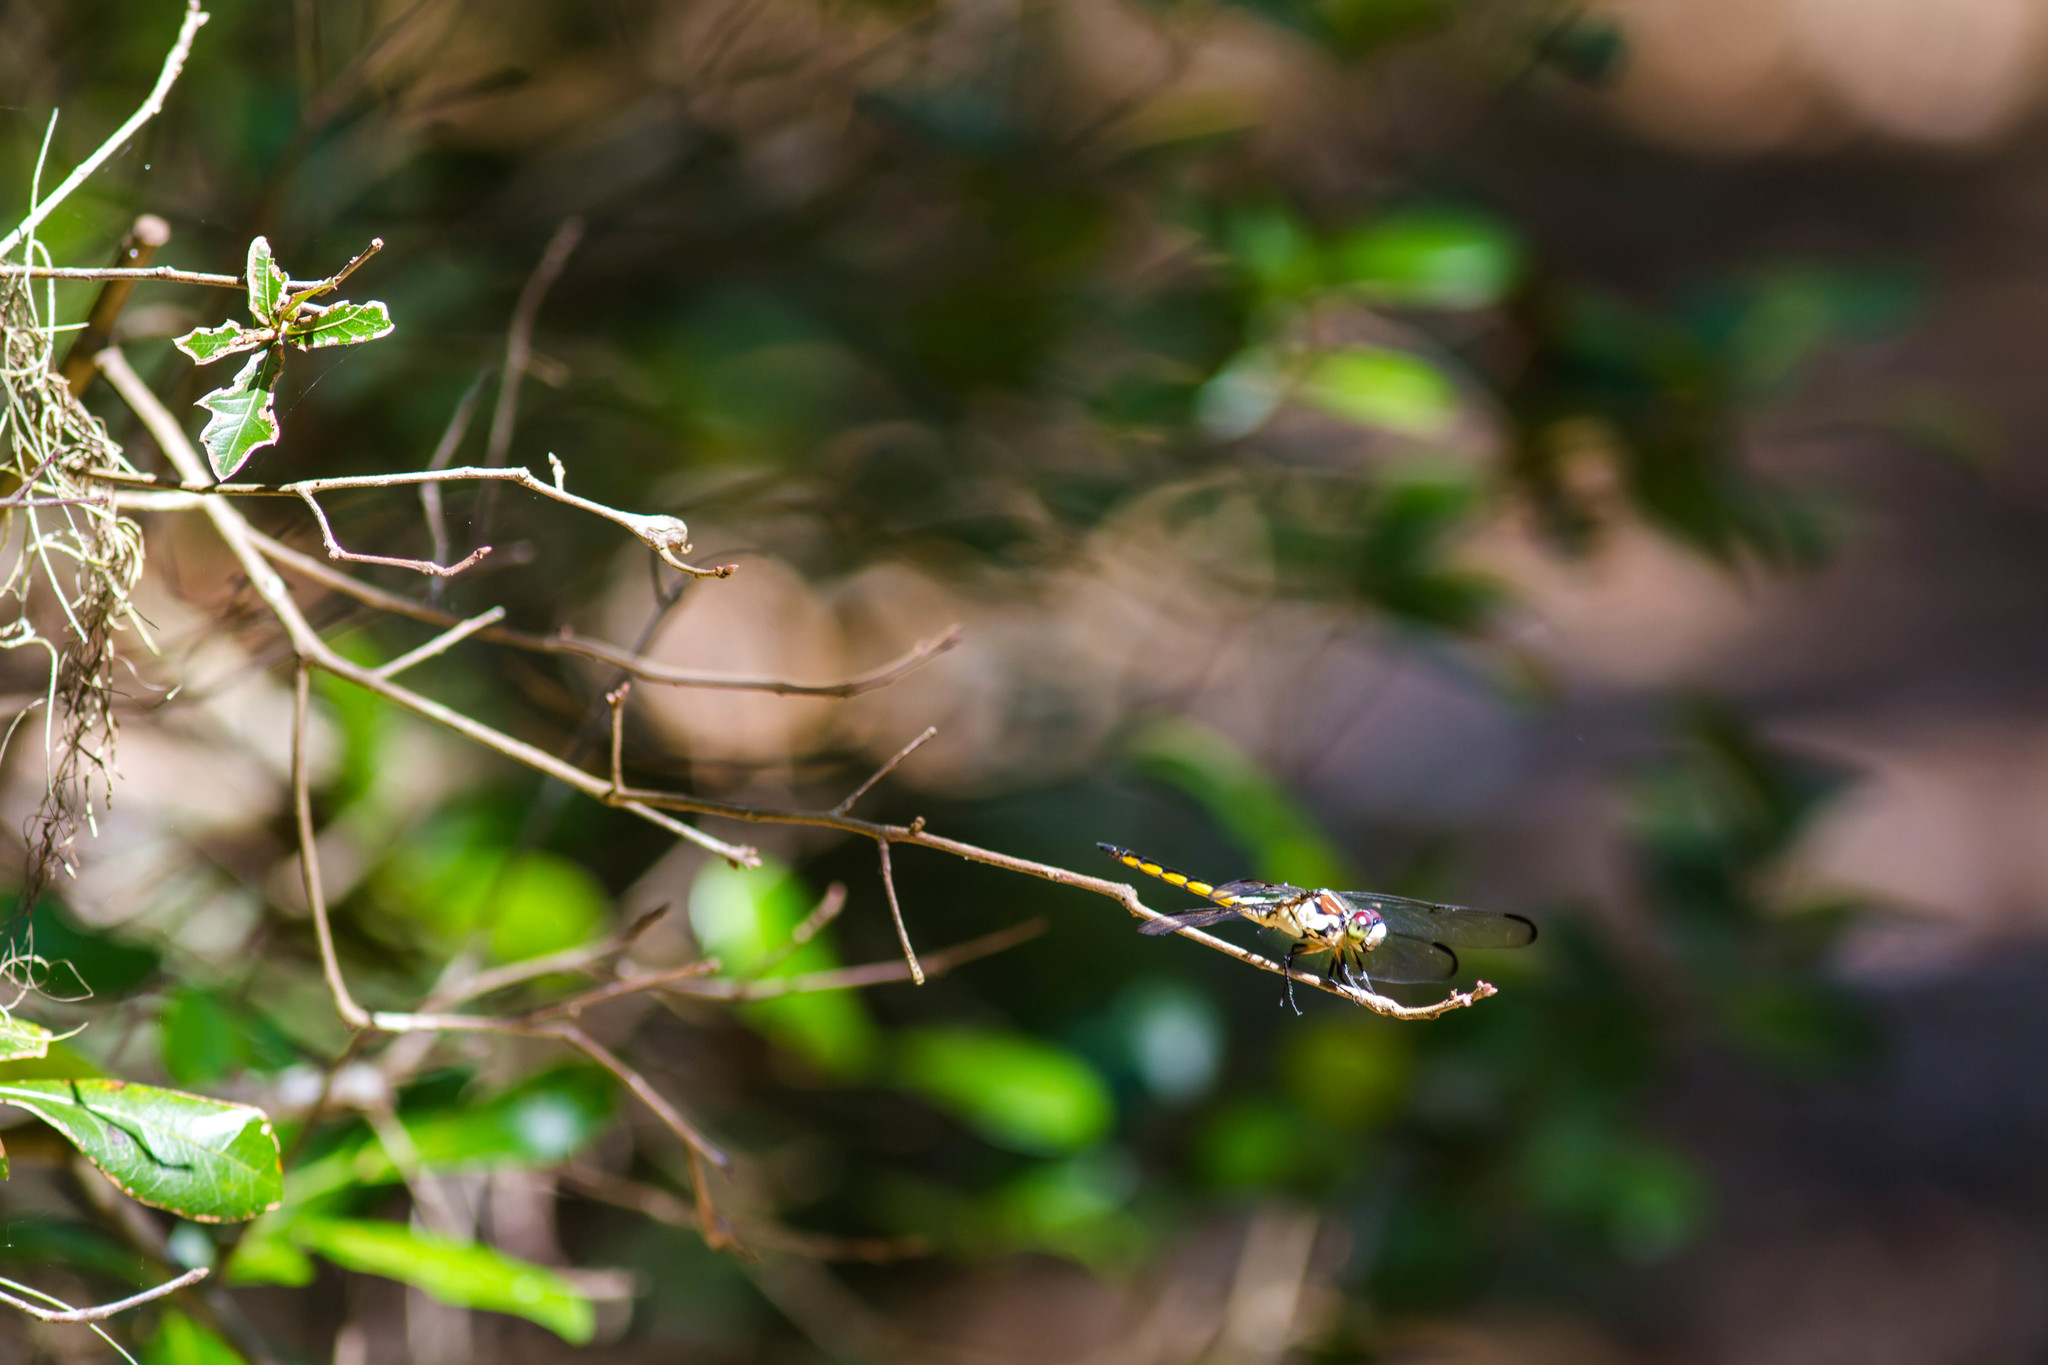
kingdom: Animalia
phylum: Arthropoda
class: Insecta
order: Odonata
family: Libellulidae
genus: Libellula
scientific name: Libellula vibrans
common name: Great blue skimmer
